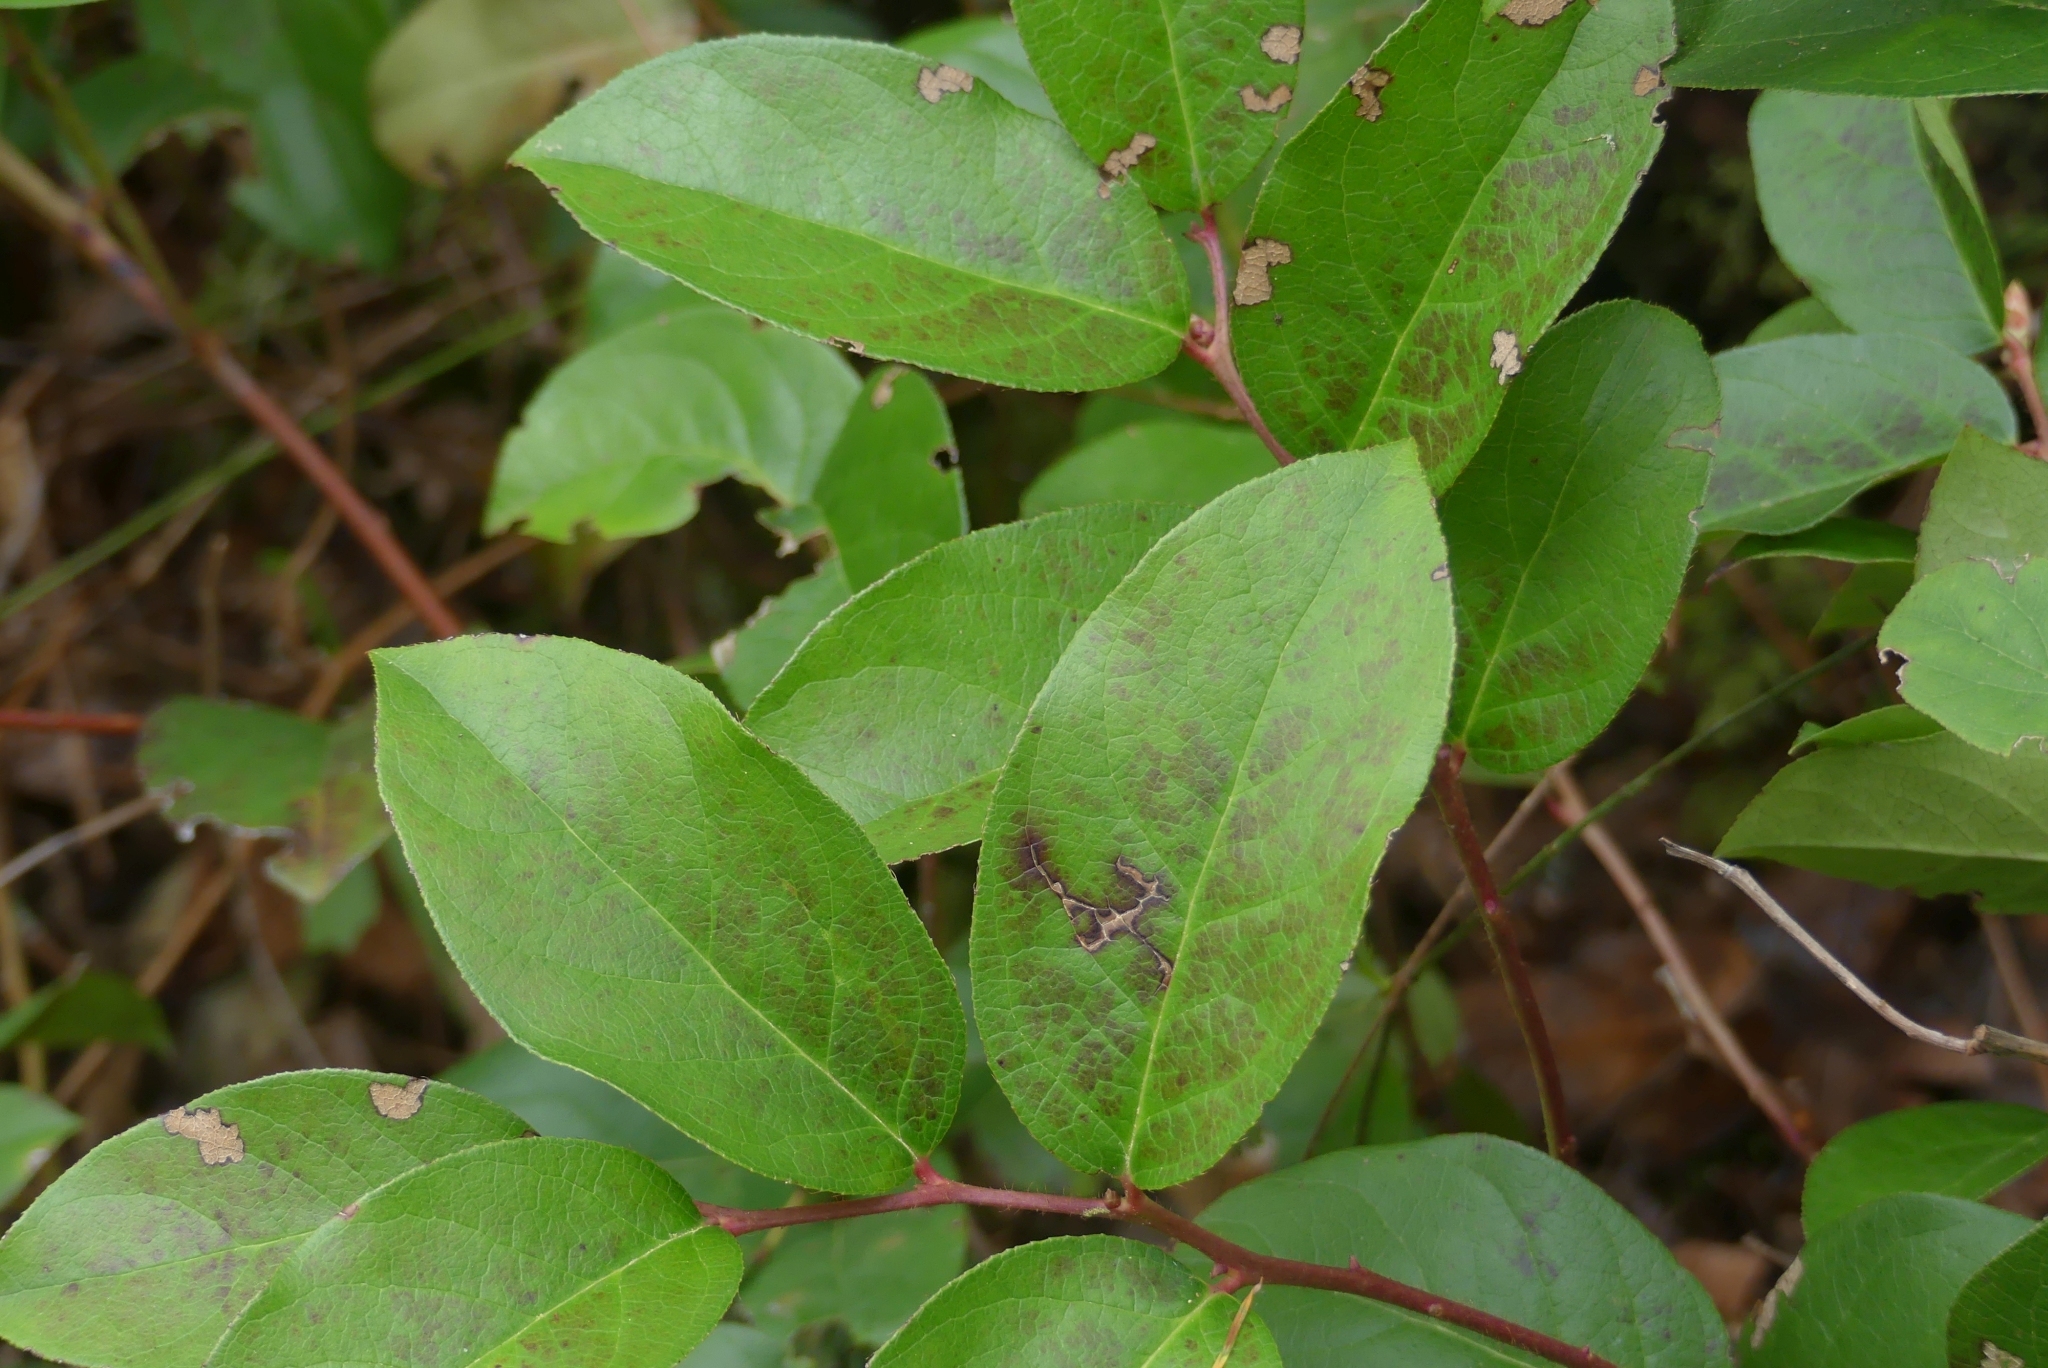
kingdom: Plantae
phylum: Tracheophyta
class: Magnoliopsida
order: Ericales
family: Ericaceae
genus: Gaultheria
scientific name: Gaultheria shallon
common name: Shallon
